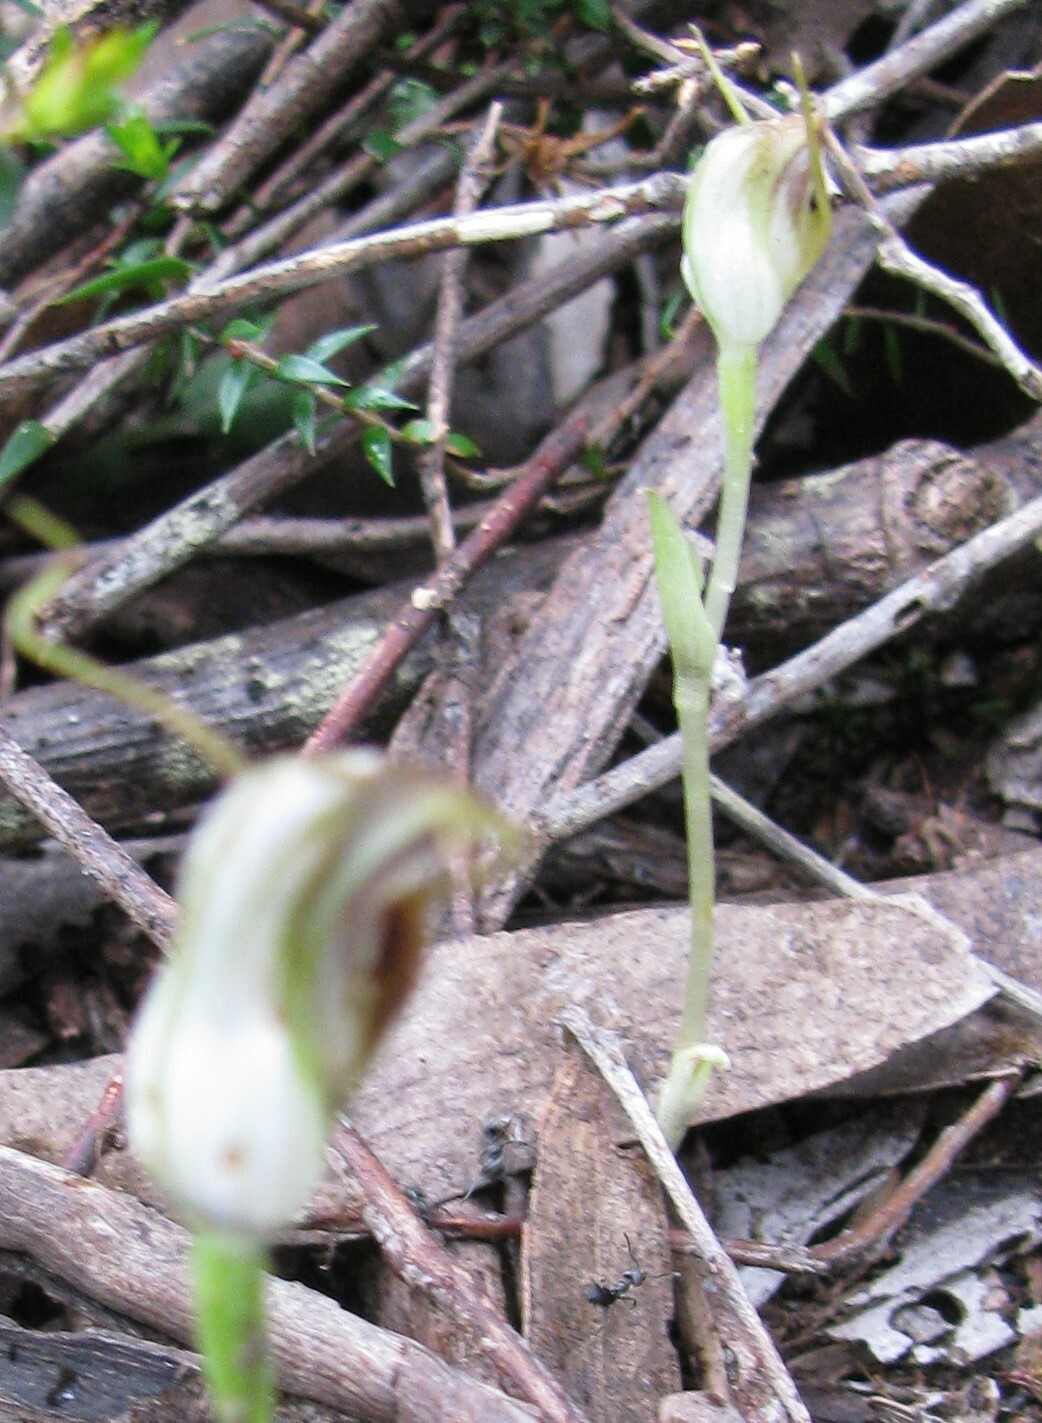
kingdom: Plantae
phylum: Tracheophyta
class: Liliopsida
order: Asparagales
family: Orchidaceae
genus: Pterostylis
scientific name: Pterostylis pedunculata
